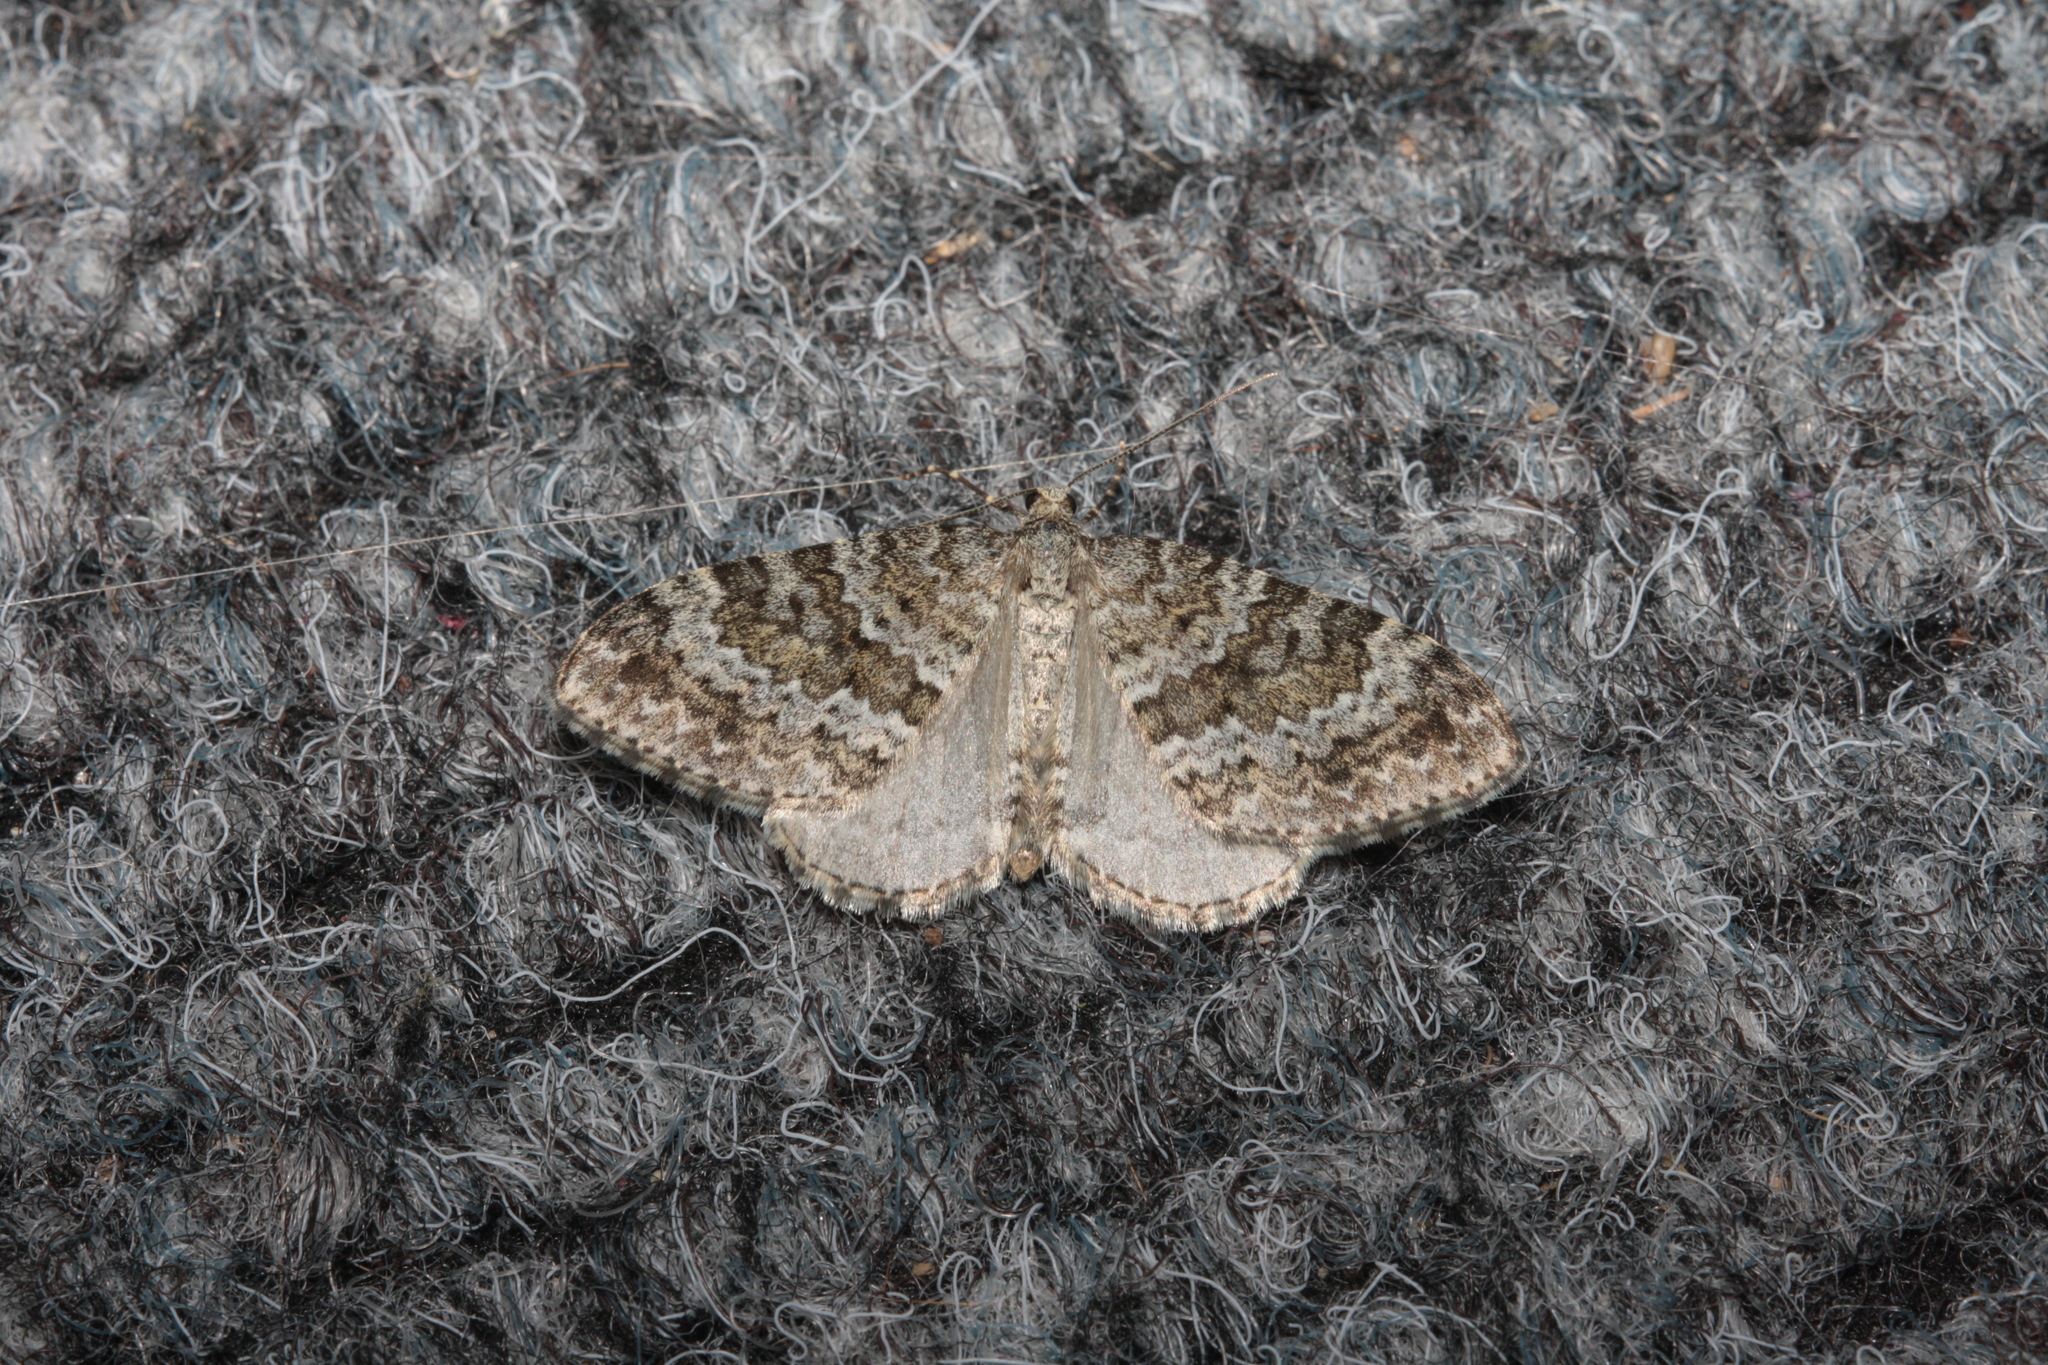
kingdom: Animalia
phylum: Arthropoda
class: Insecta
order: Lepidoptera
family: Geometridae
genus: Entephria
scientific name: Entephria caesiata
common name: Grey mountain moth
